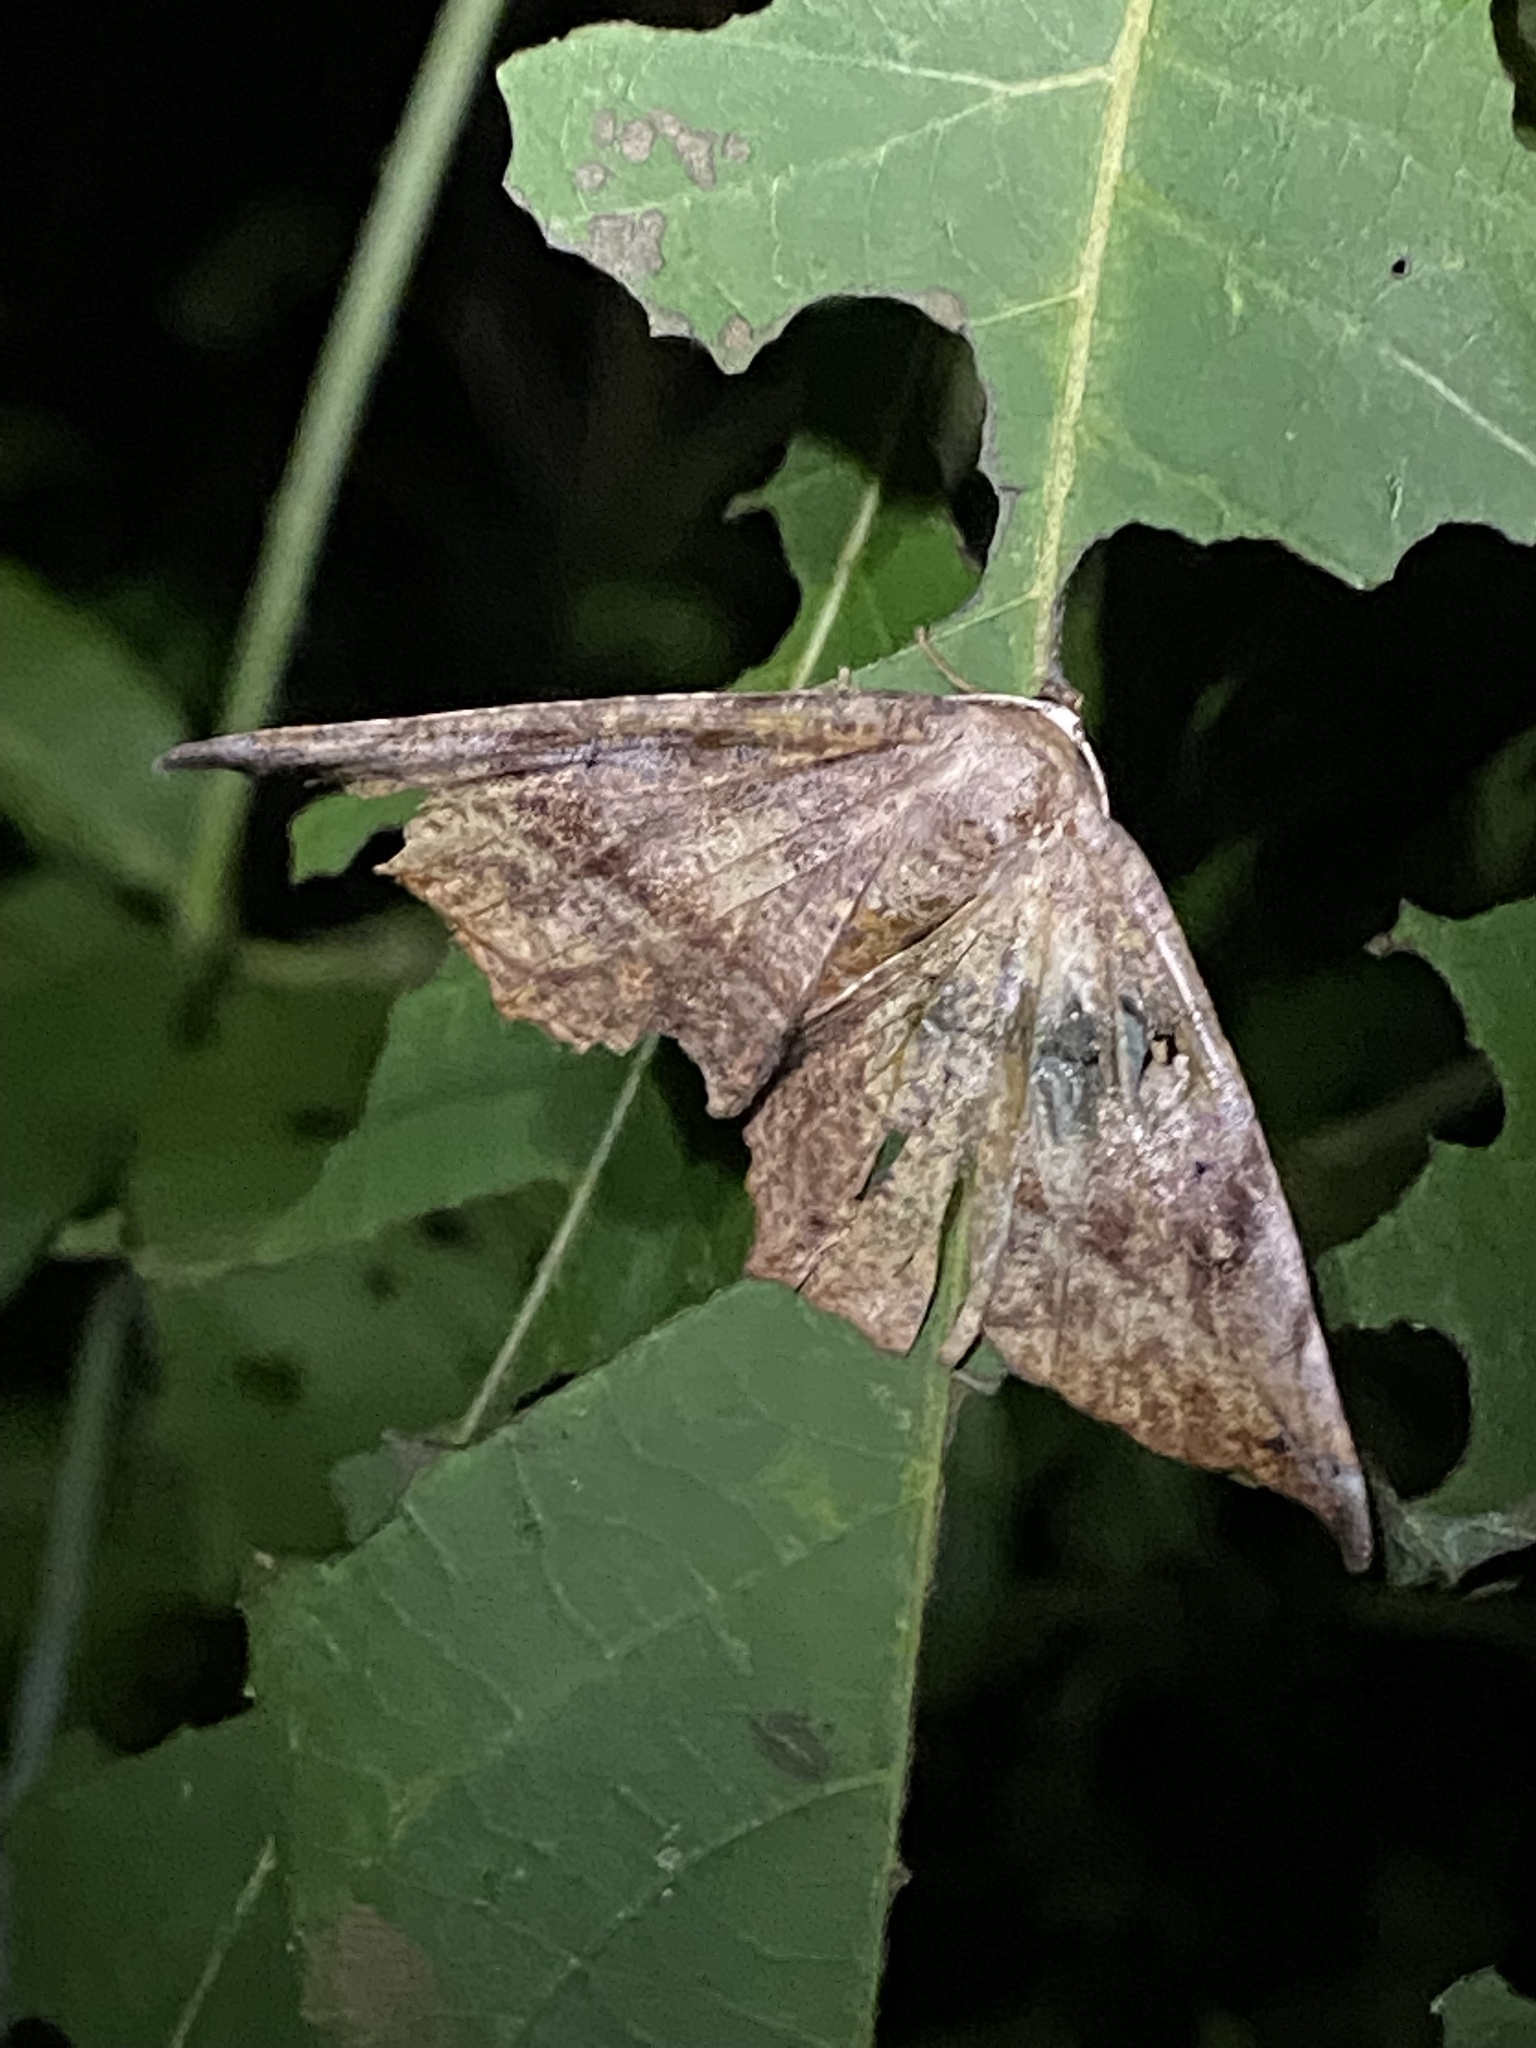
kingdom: Animalia
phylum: Arthropoda
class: Insecta
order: Lepidoptera
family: Geometridae
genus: Eutrapela
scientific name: Eutrapela clemataria
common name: Curved-toothed geometer
